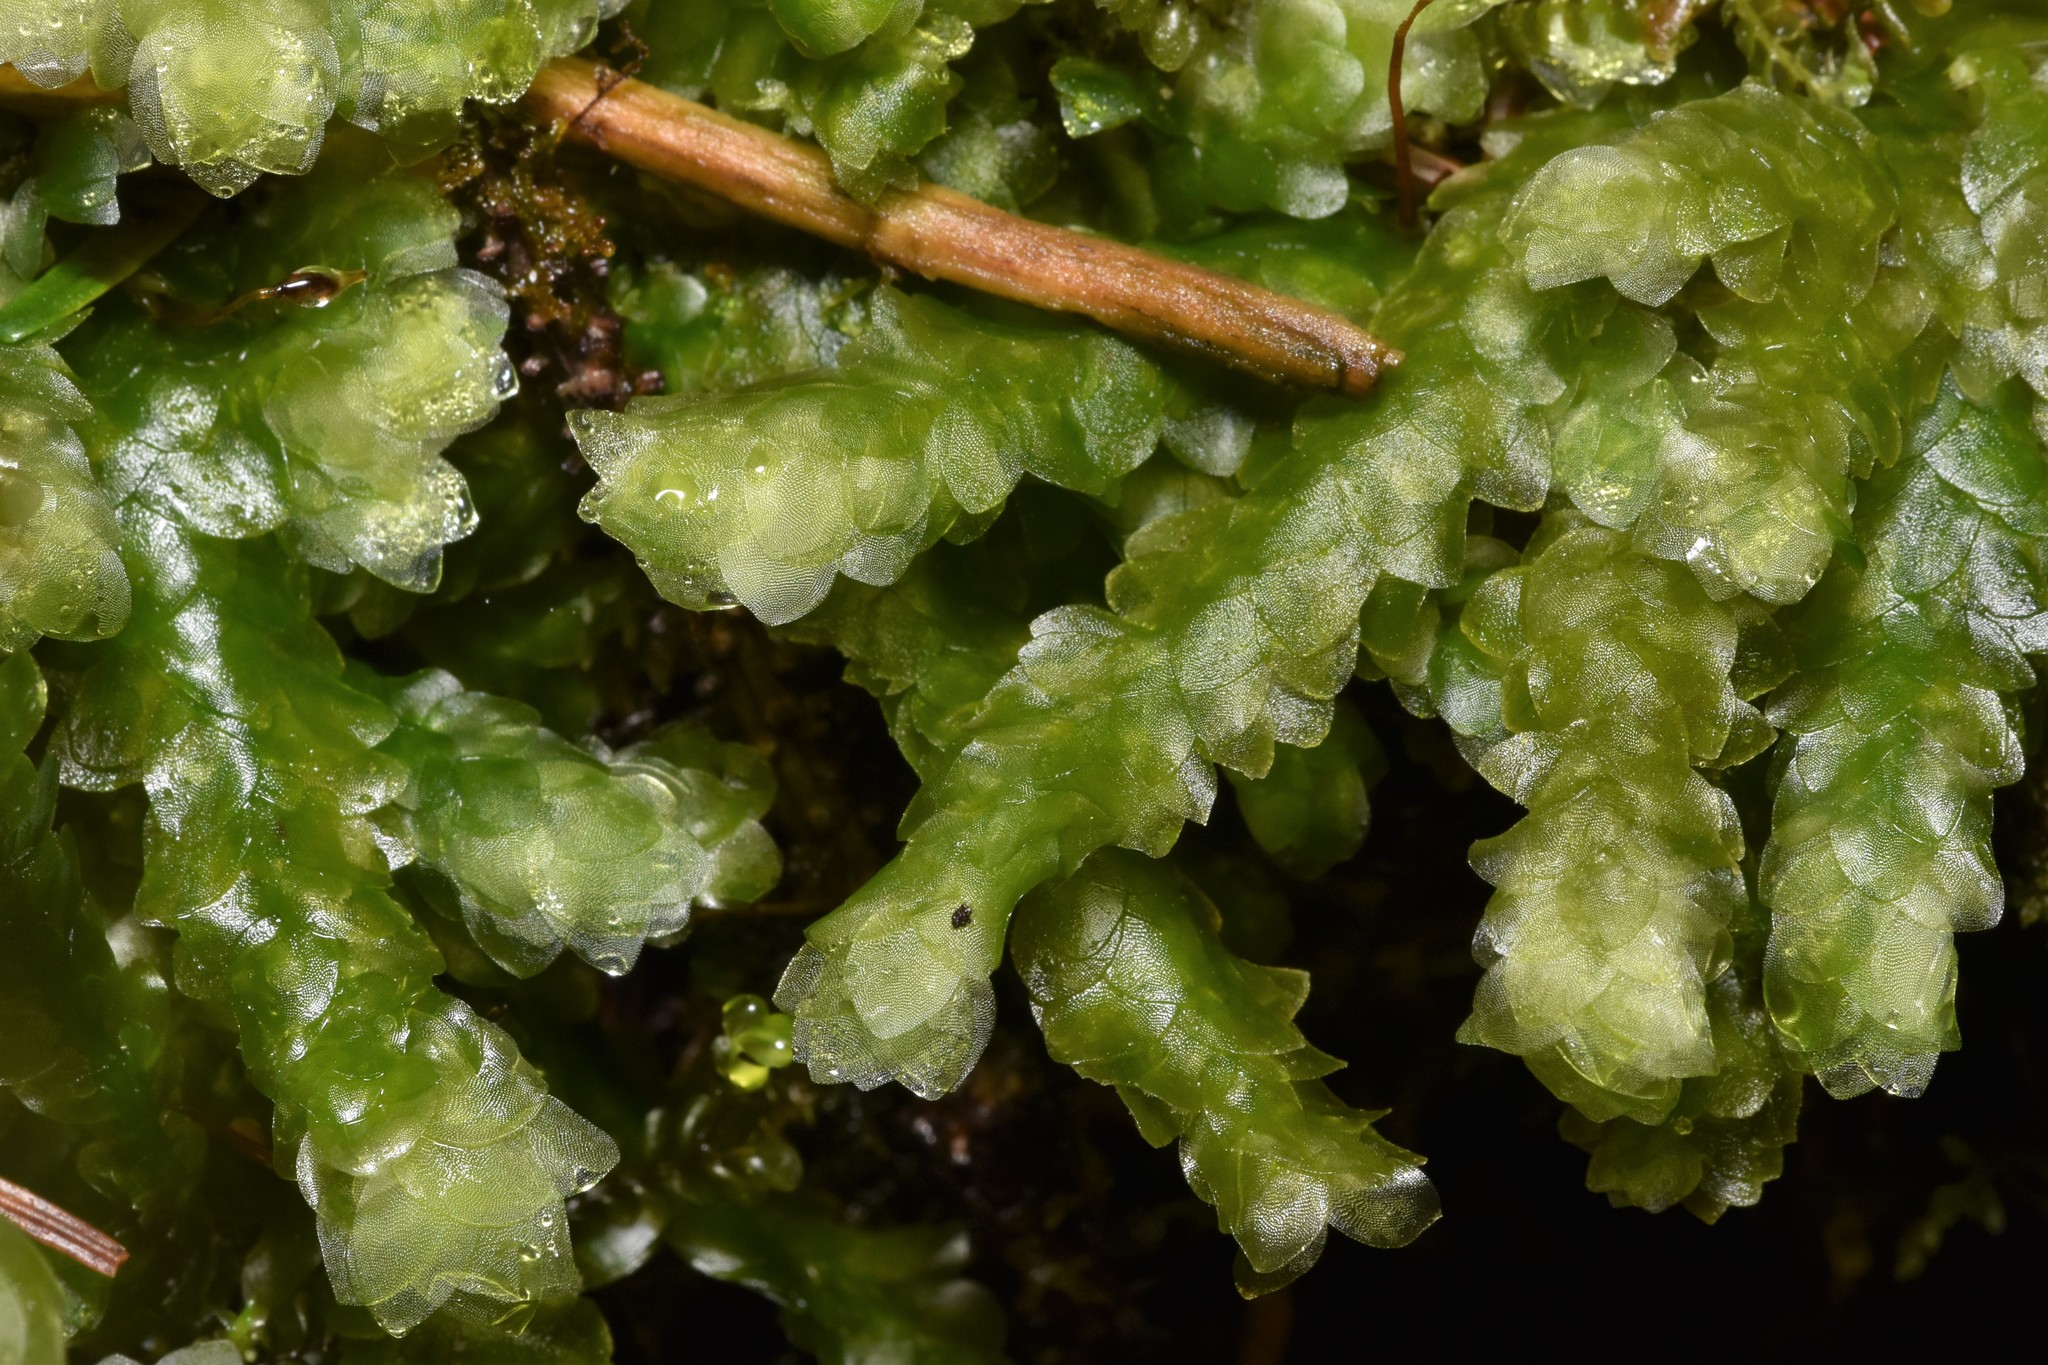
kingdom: Plantae
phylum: Bryophyta
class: Bryopsida
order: Hookeriales
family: Hookeriaceae
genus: Hookeria
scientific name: Hookeria lucens
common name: Shining hookeria
